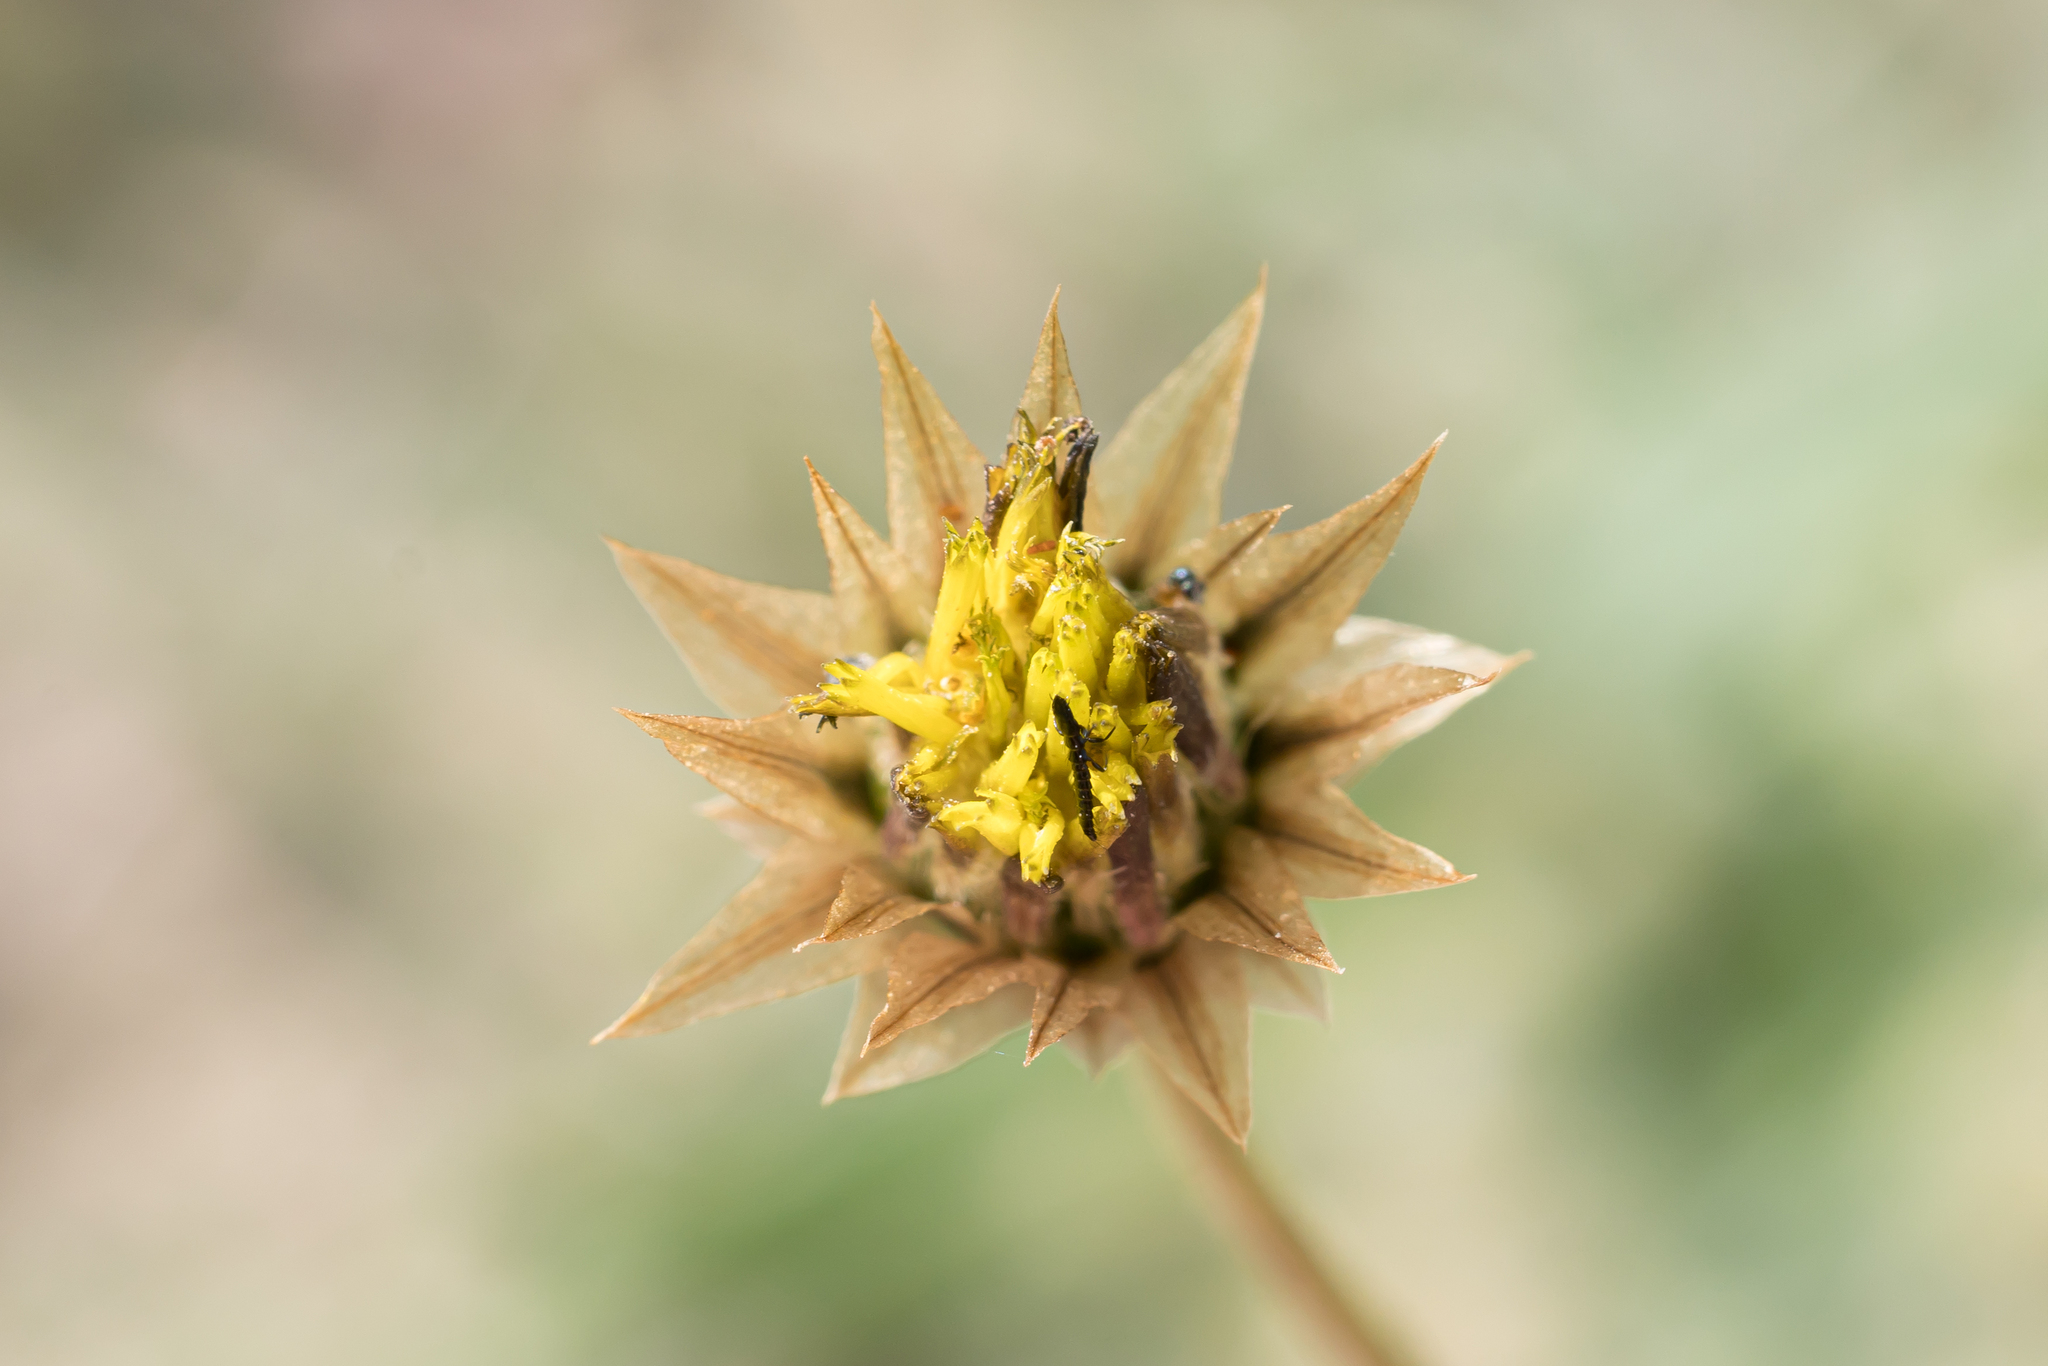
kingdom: Plantae
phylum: Tracheophyta
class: Magnoliopsida
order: Asterales
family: Asteraceae
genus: Catananche
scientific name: Catananche lutea
